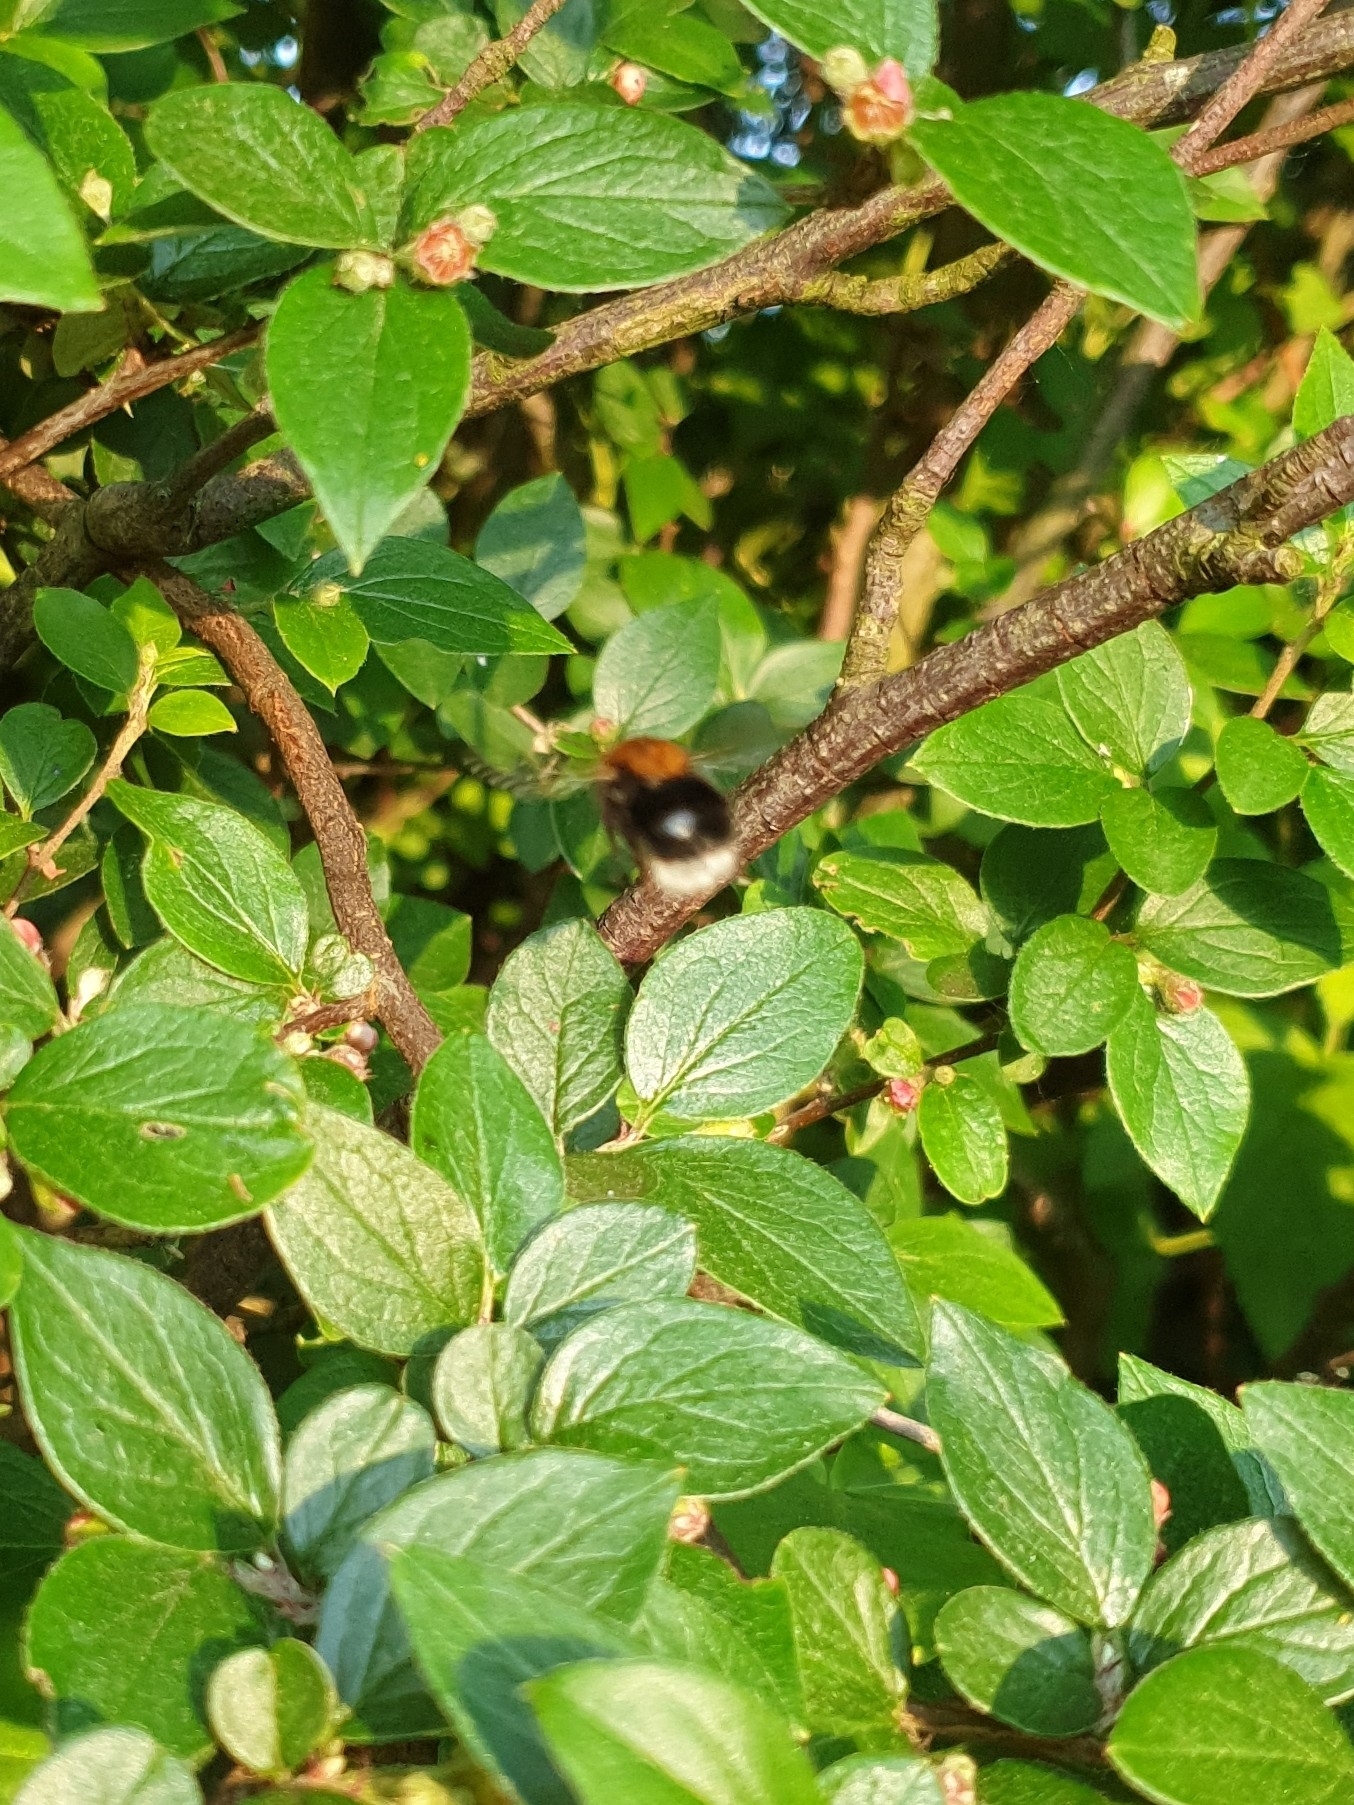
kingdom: Animalia
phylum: Arthropoda
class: Insecta
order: Hymenoptera
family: Apidae
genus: Bombus
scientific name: Bombus hypnorum
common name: New garden bumblebee
